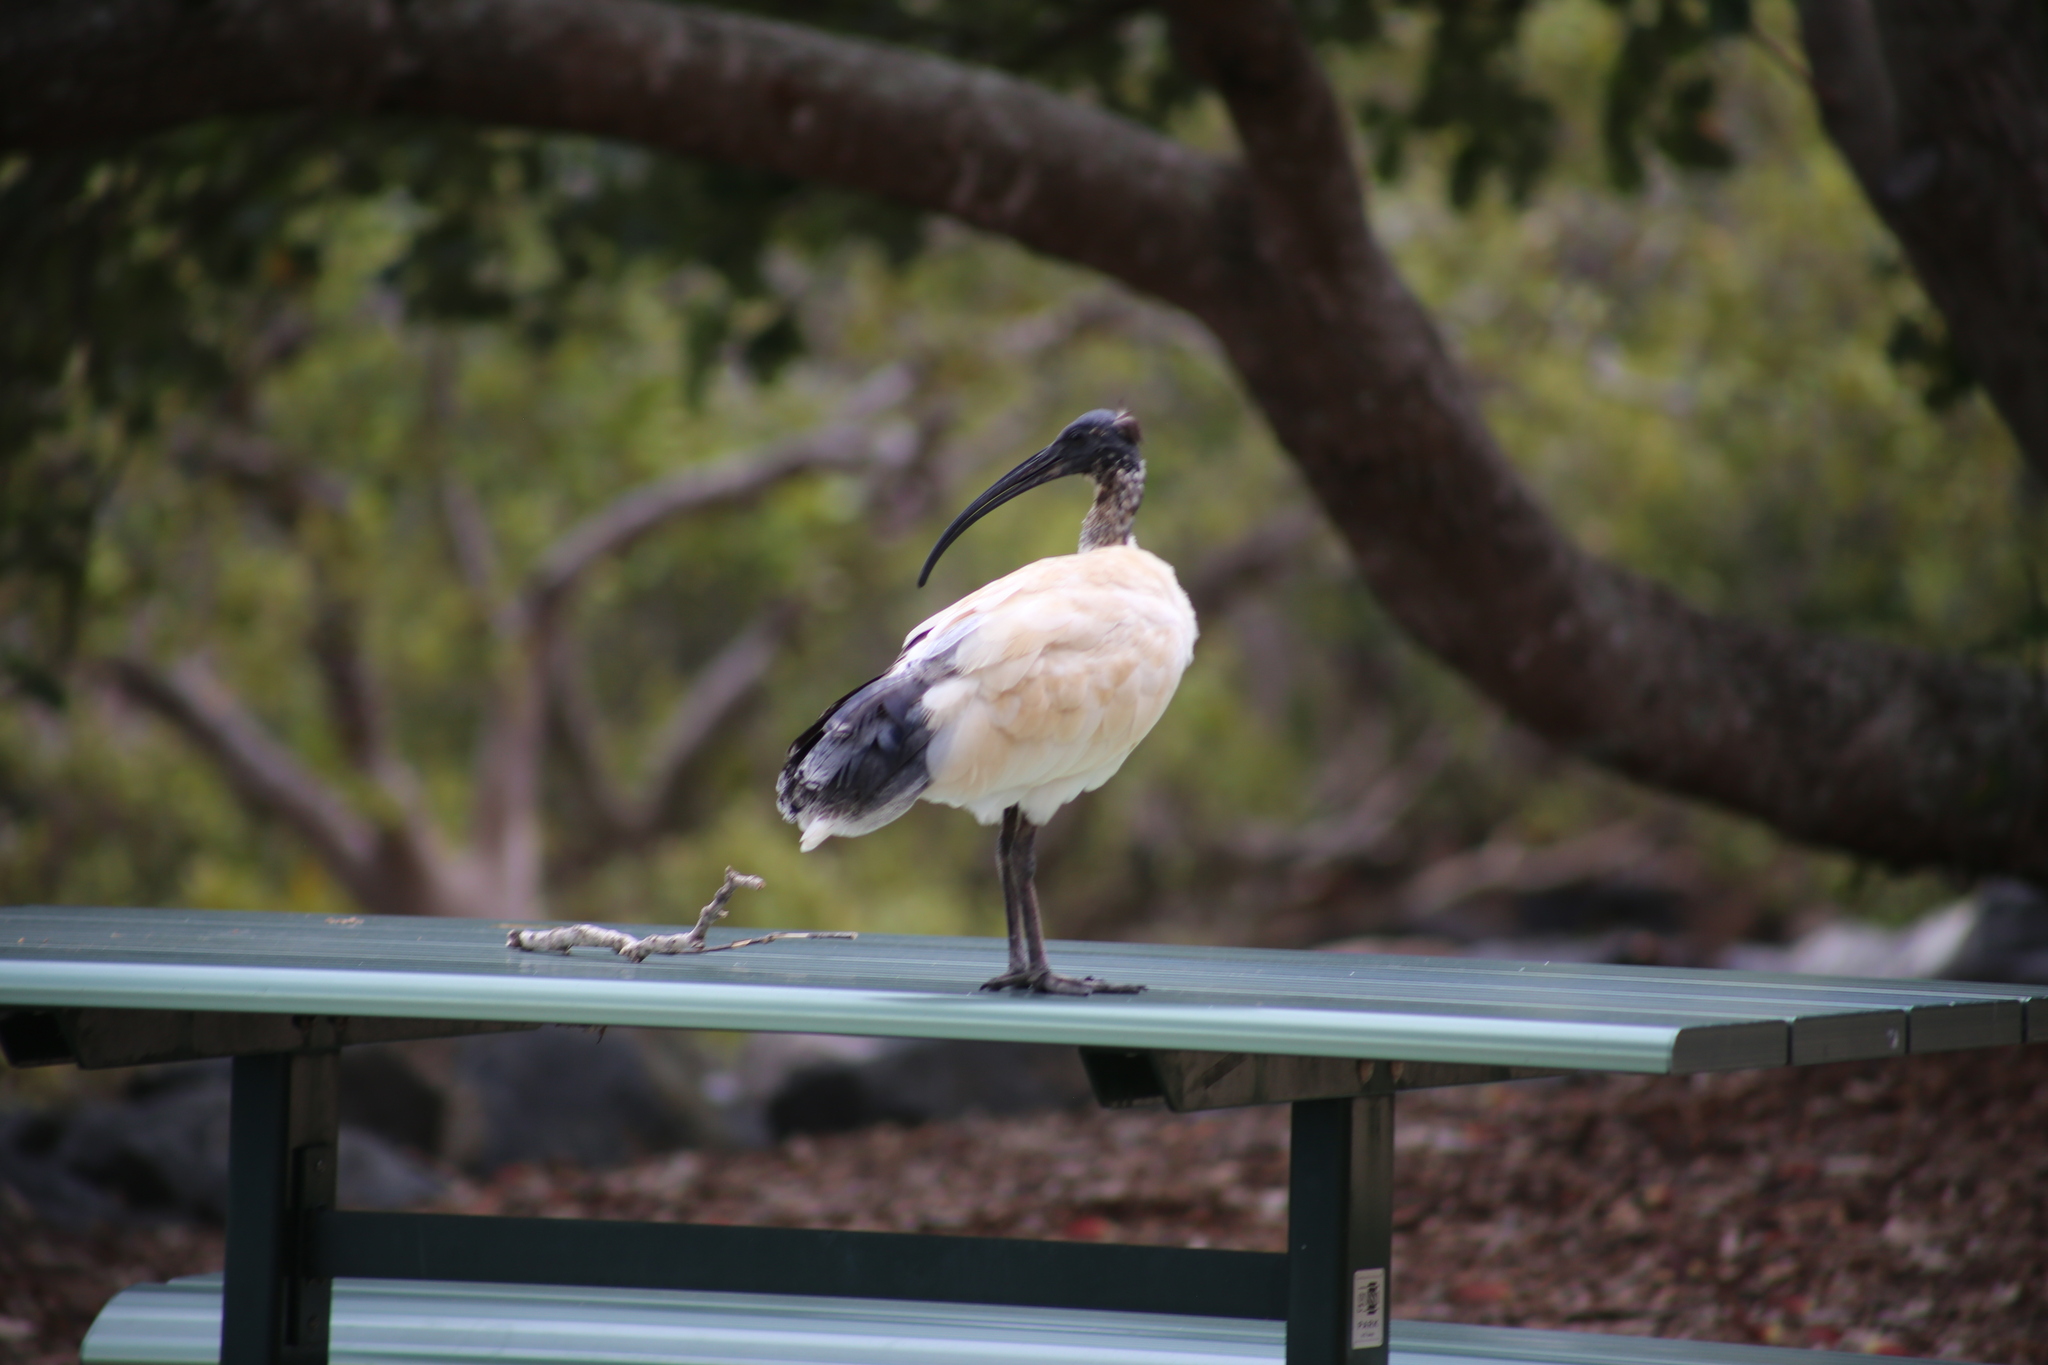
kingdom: Animalia
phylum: Chordata
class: Aves
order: Pelecaniformes
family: Threskiornithidae
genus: Threskiornis
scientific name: Threskiornis molucca
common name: Australian white ibis
